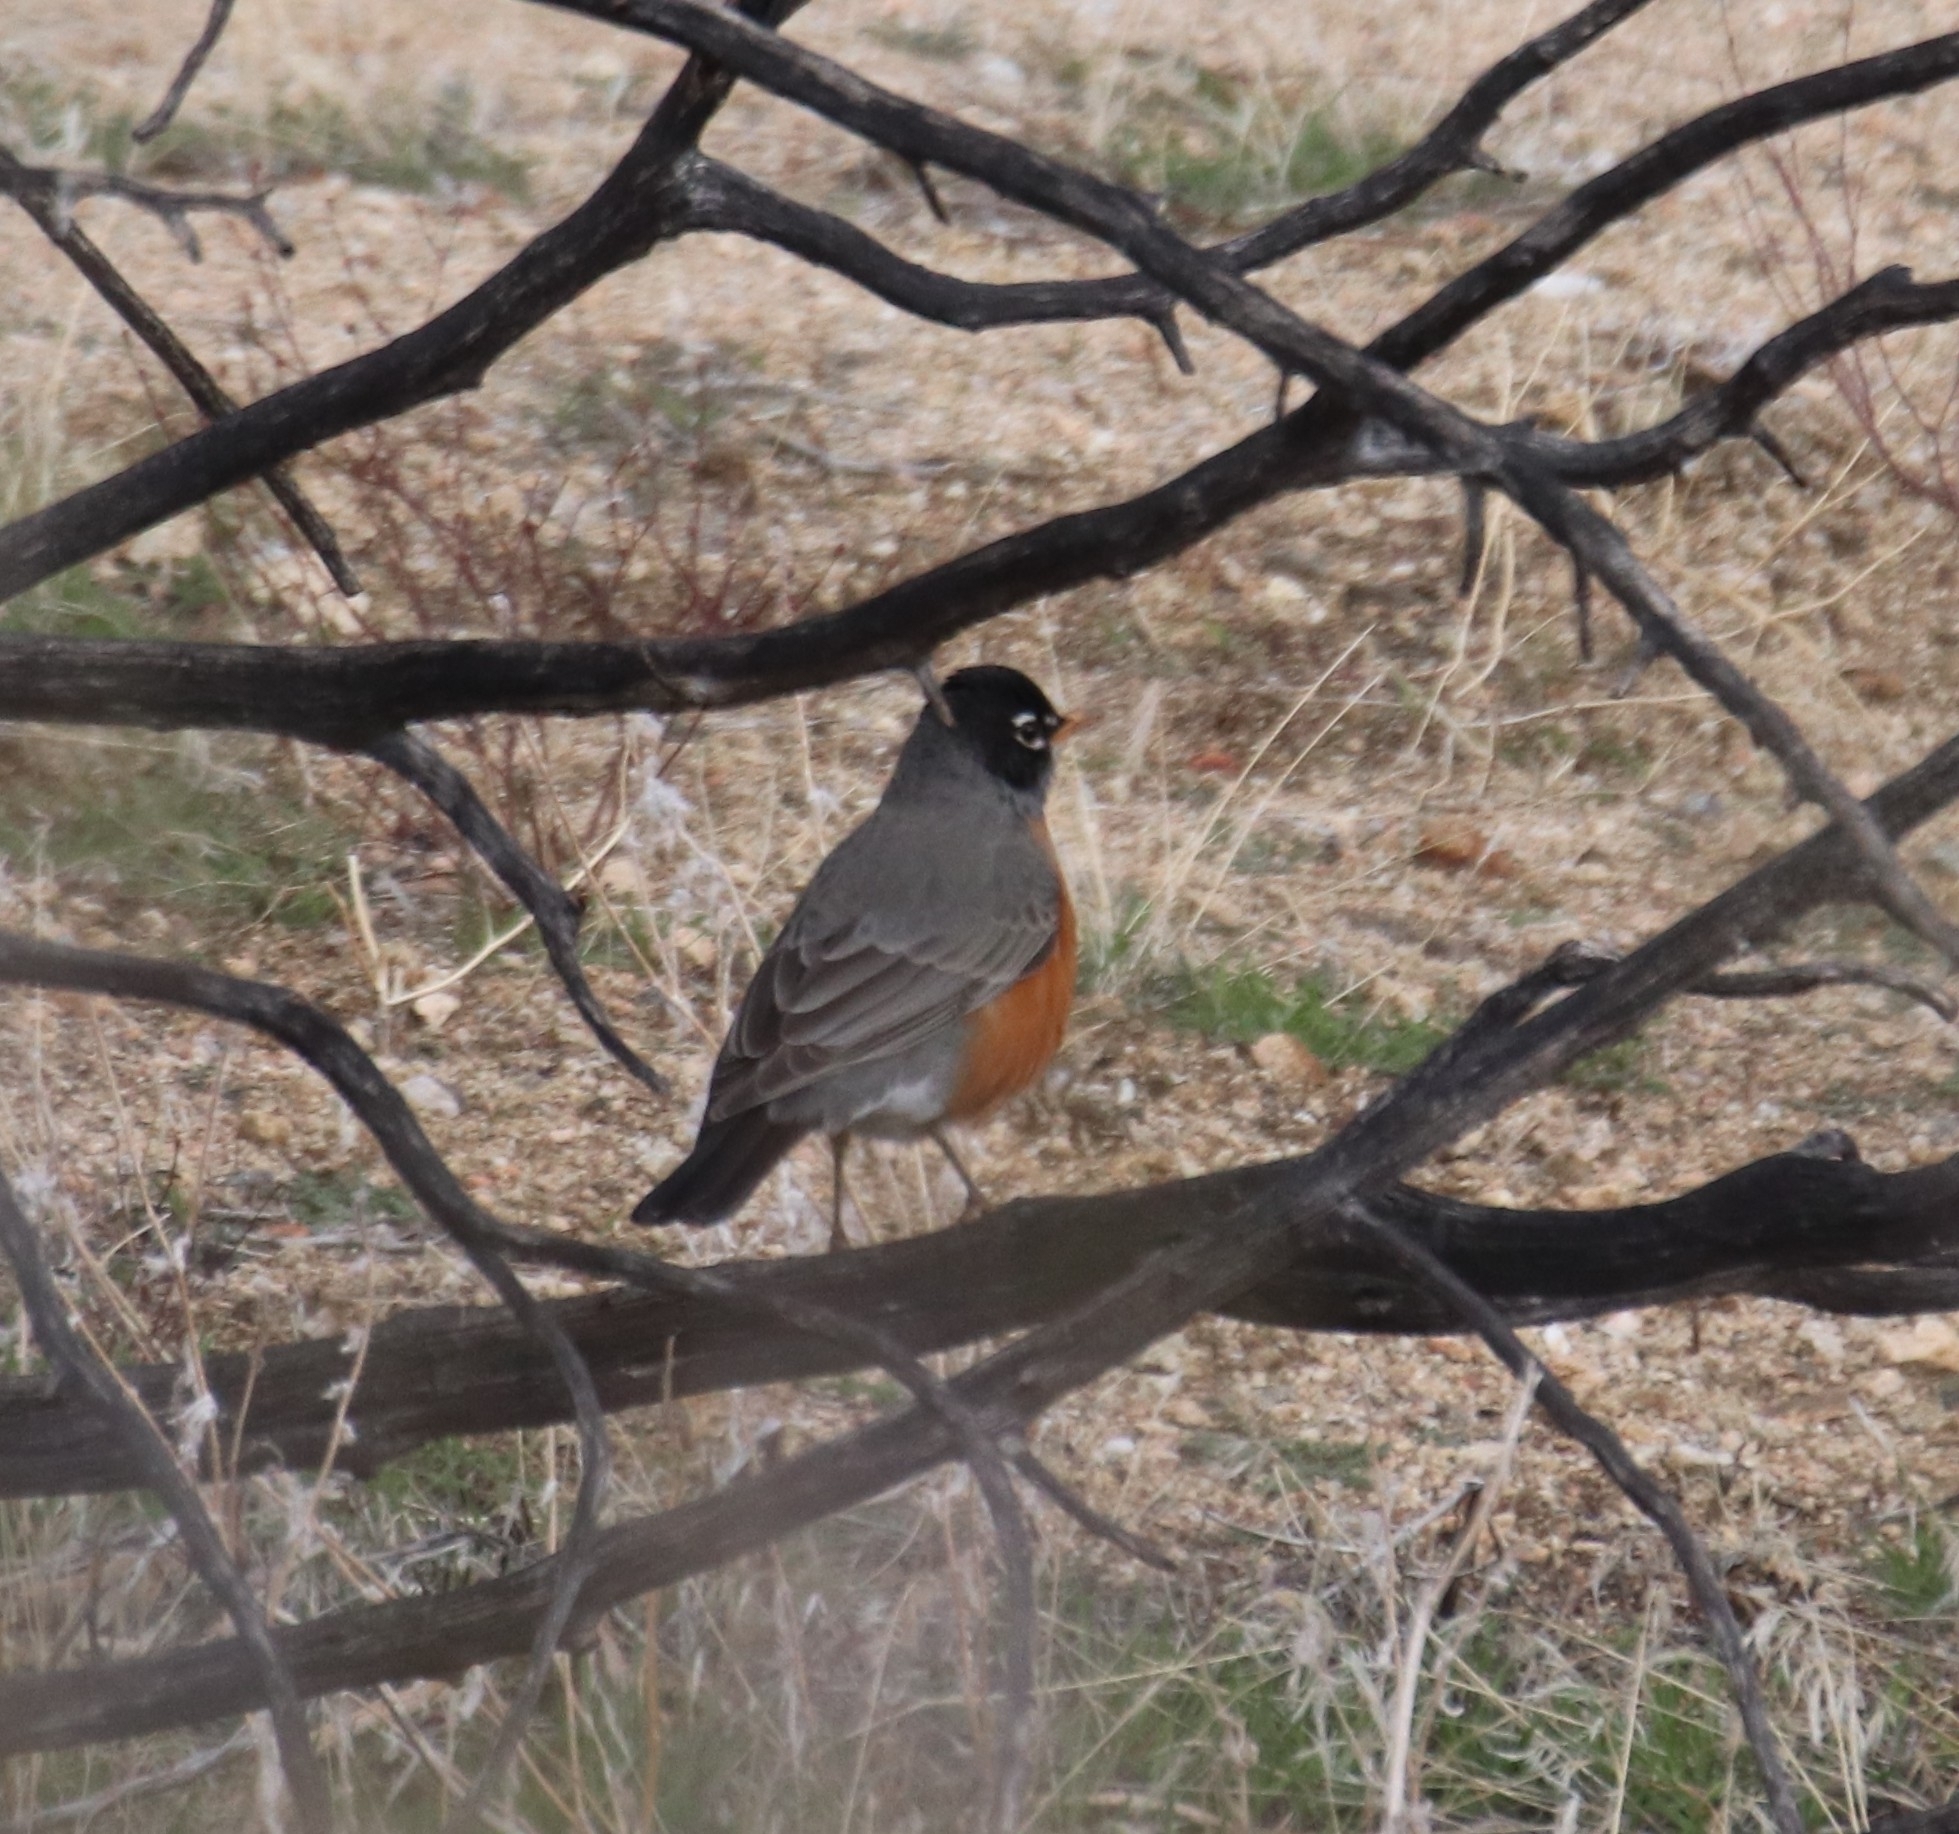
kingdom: Animalia
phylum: Chordata
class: Aves
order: Passeriformes
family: Turdidae
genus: Turdus
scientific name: Turdus migratorius
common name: American robin
